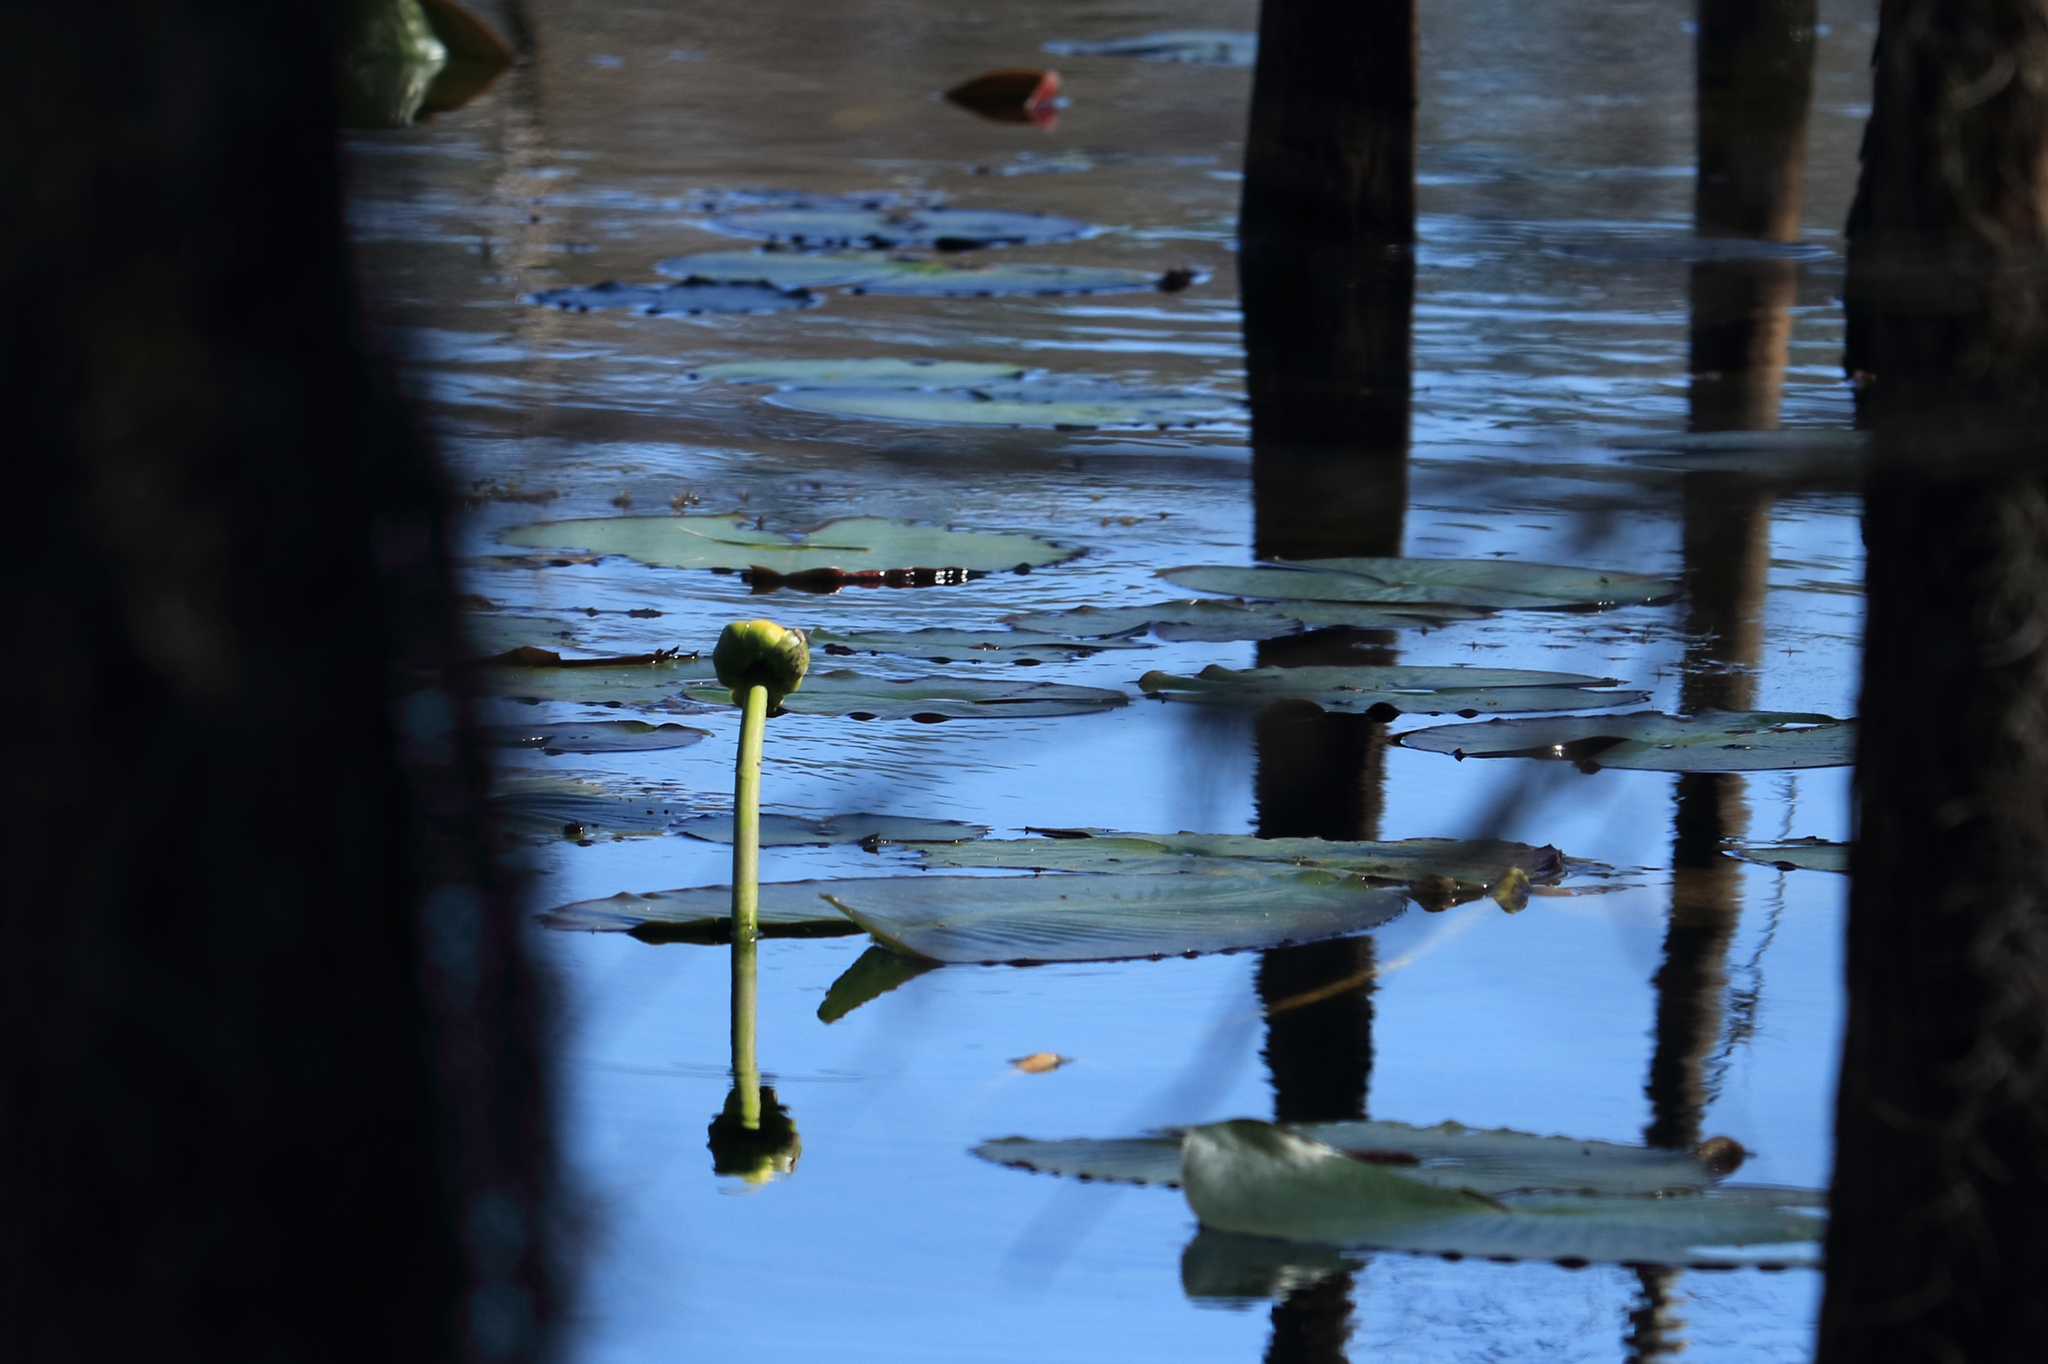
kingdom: Plantae
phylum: Tracheophyta
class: Magnoliopsida
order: Nymphaeales
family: Nymphaeaceae
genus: Nuphar
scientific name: Nuphar advena
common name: Spatter-dock
